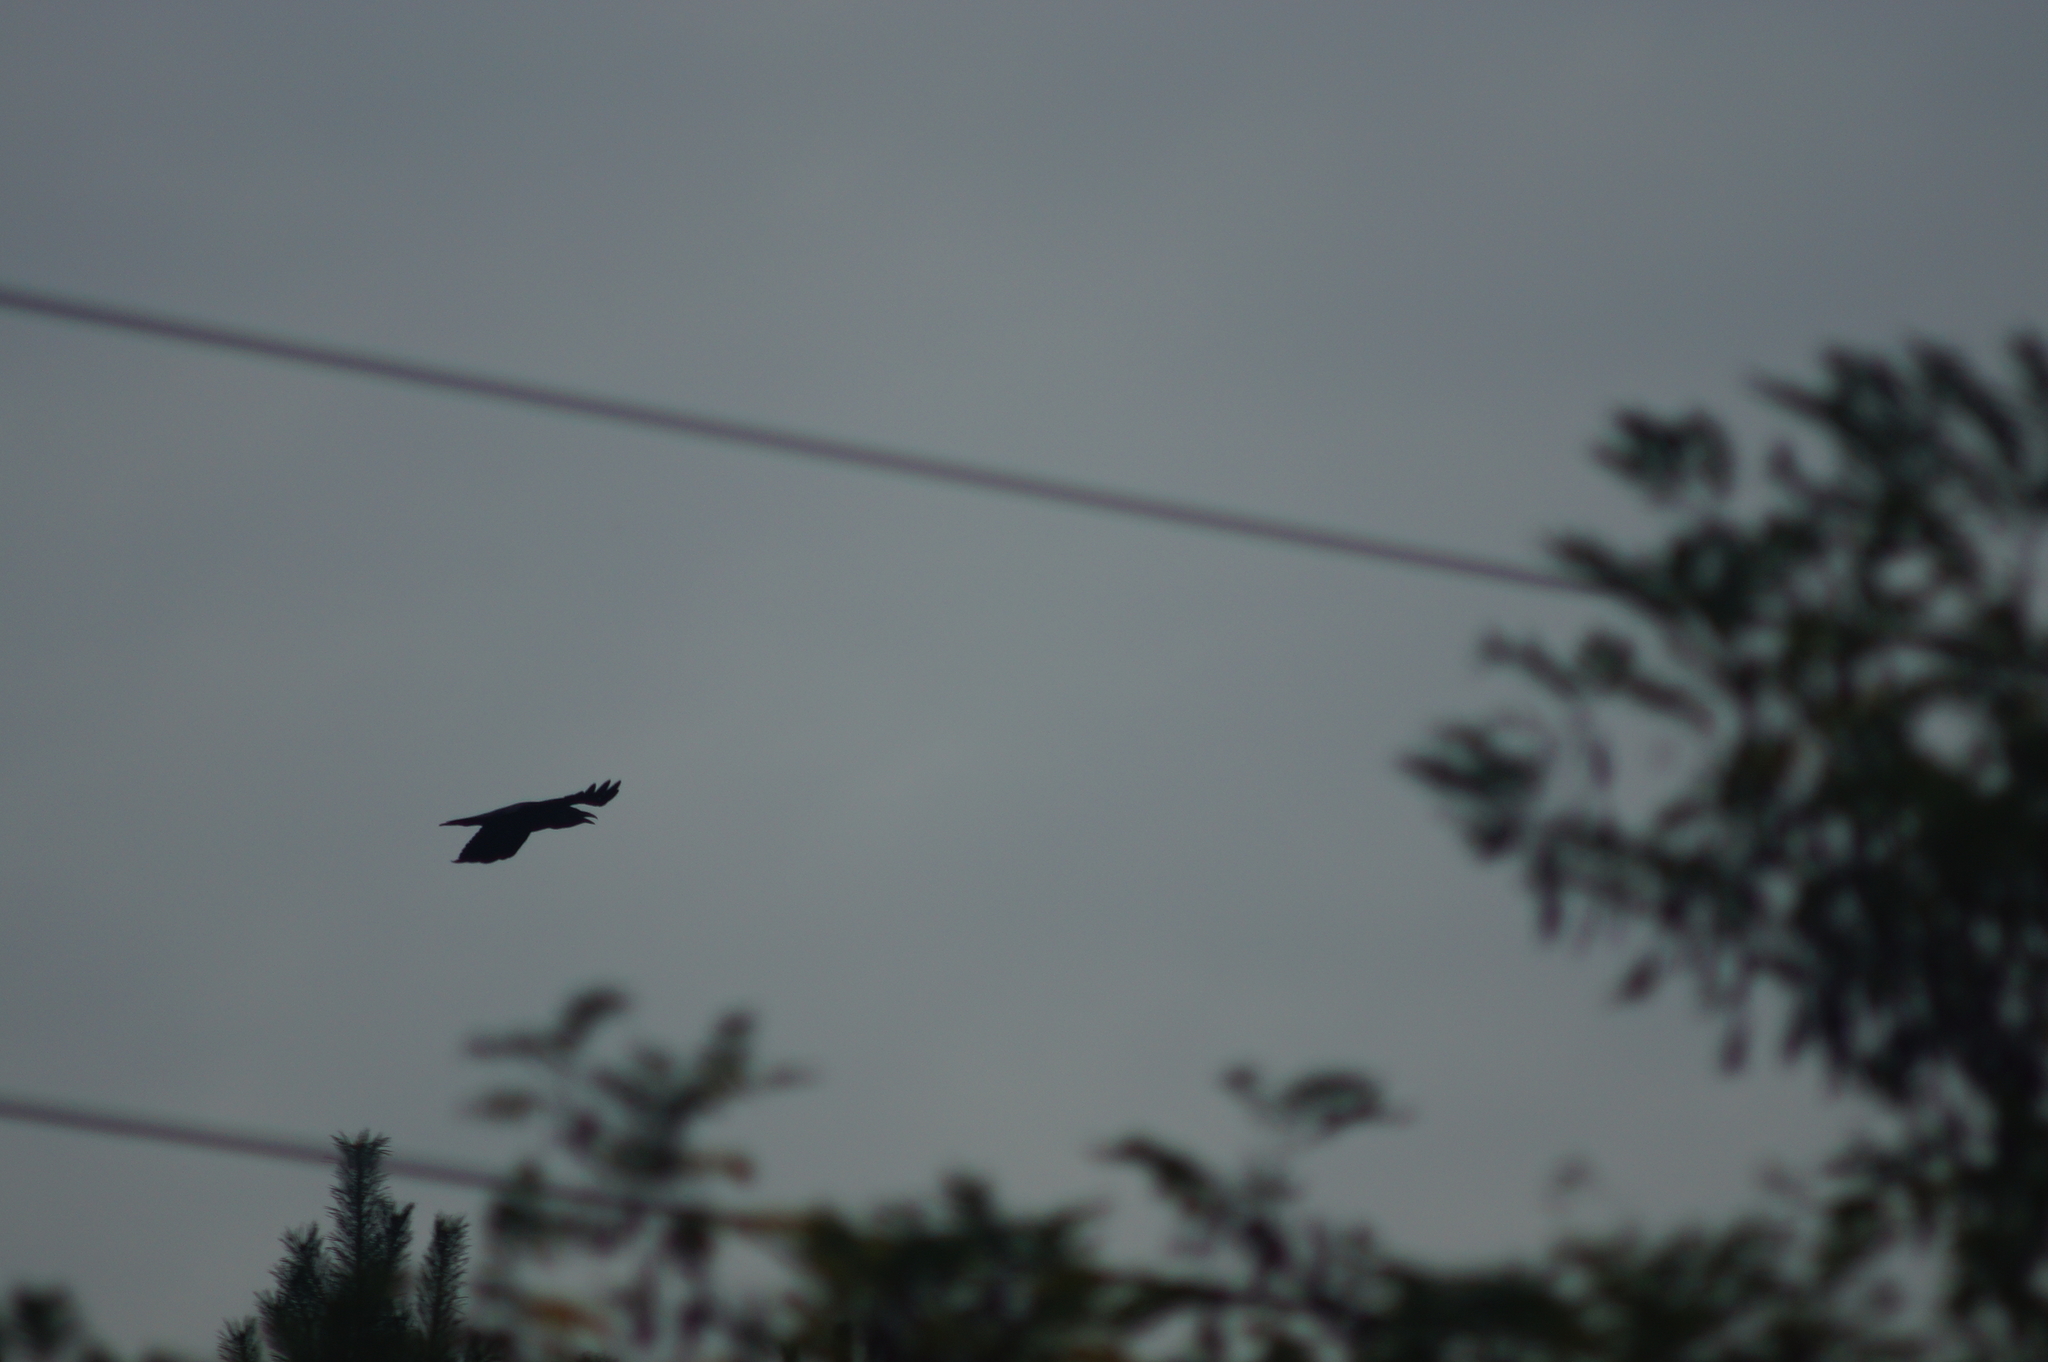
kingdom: Animalia
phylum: Chordata
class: Aves
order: Passeriformes
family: Corvidae
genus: Corvus
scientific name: Corvus corax
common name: Common raven
